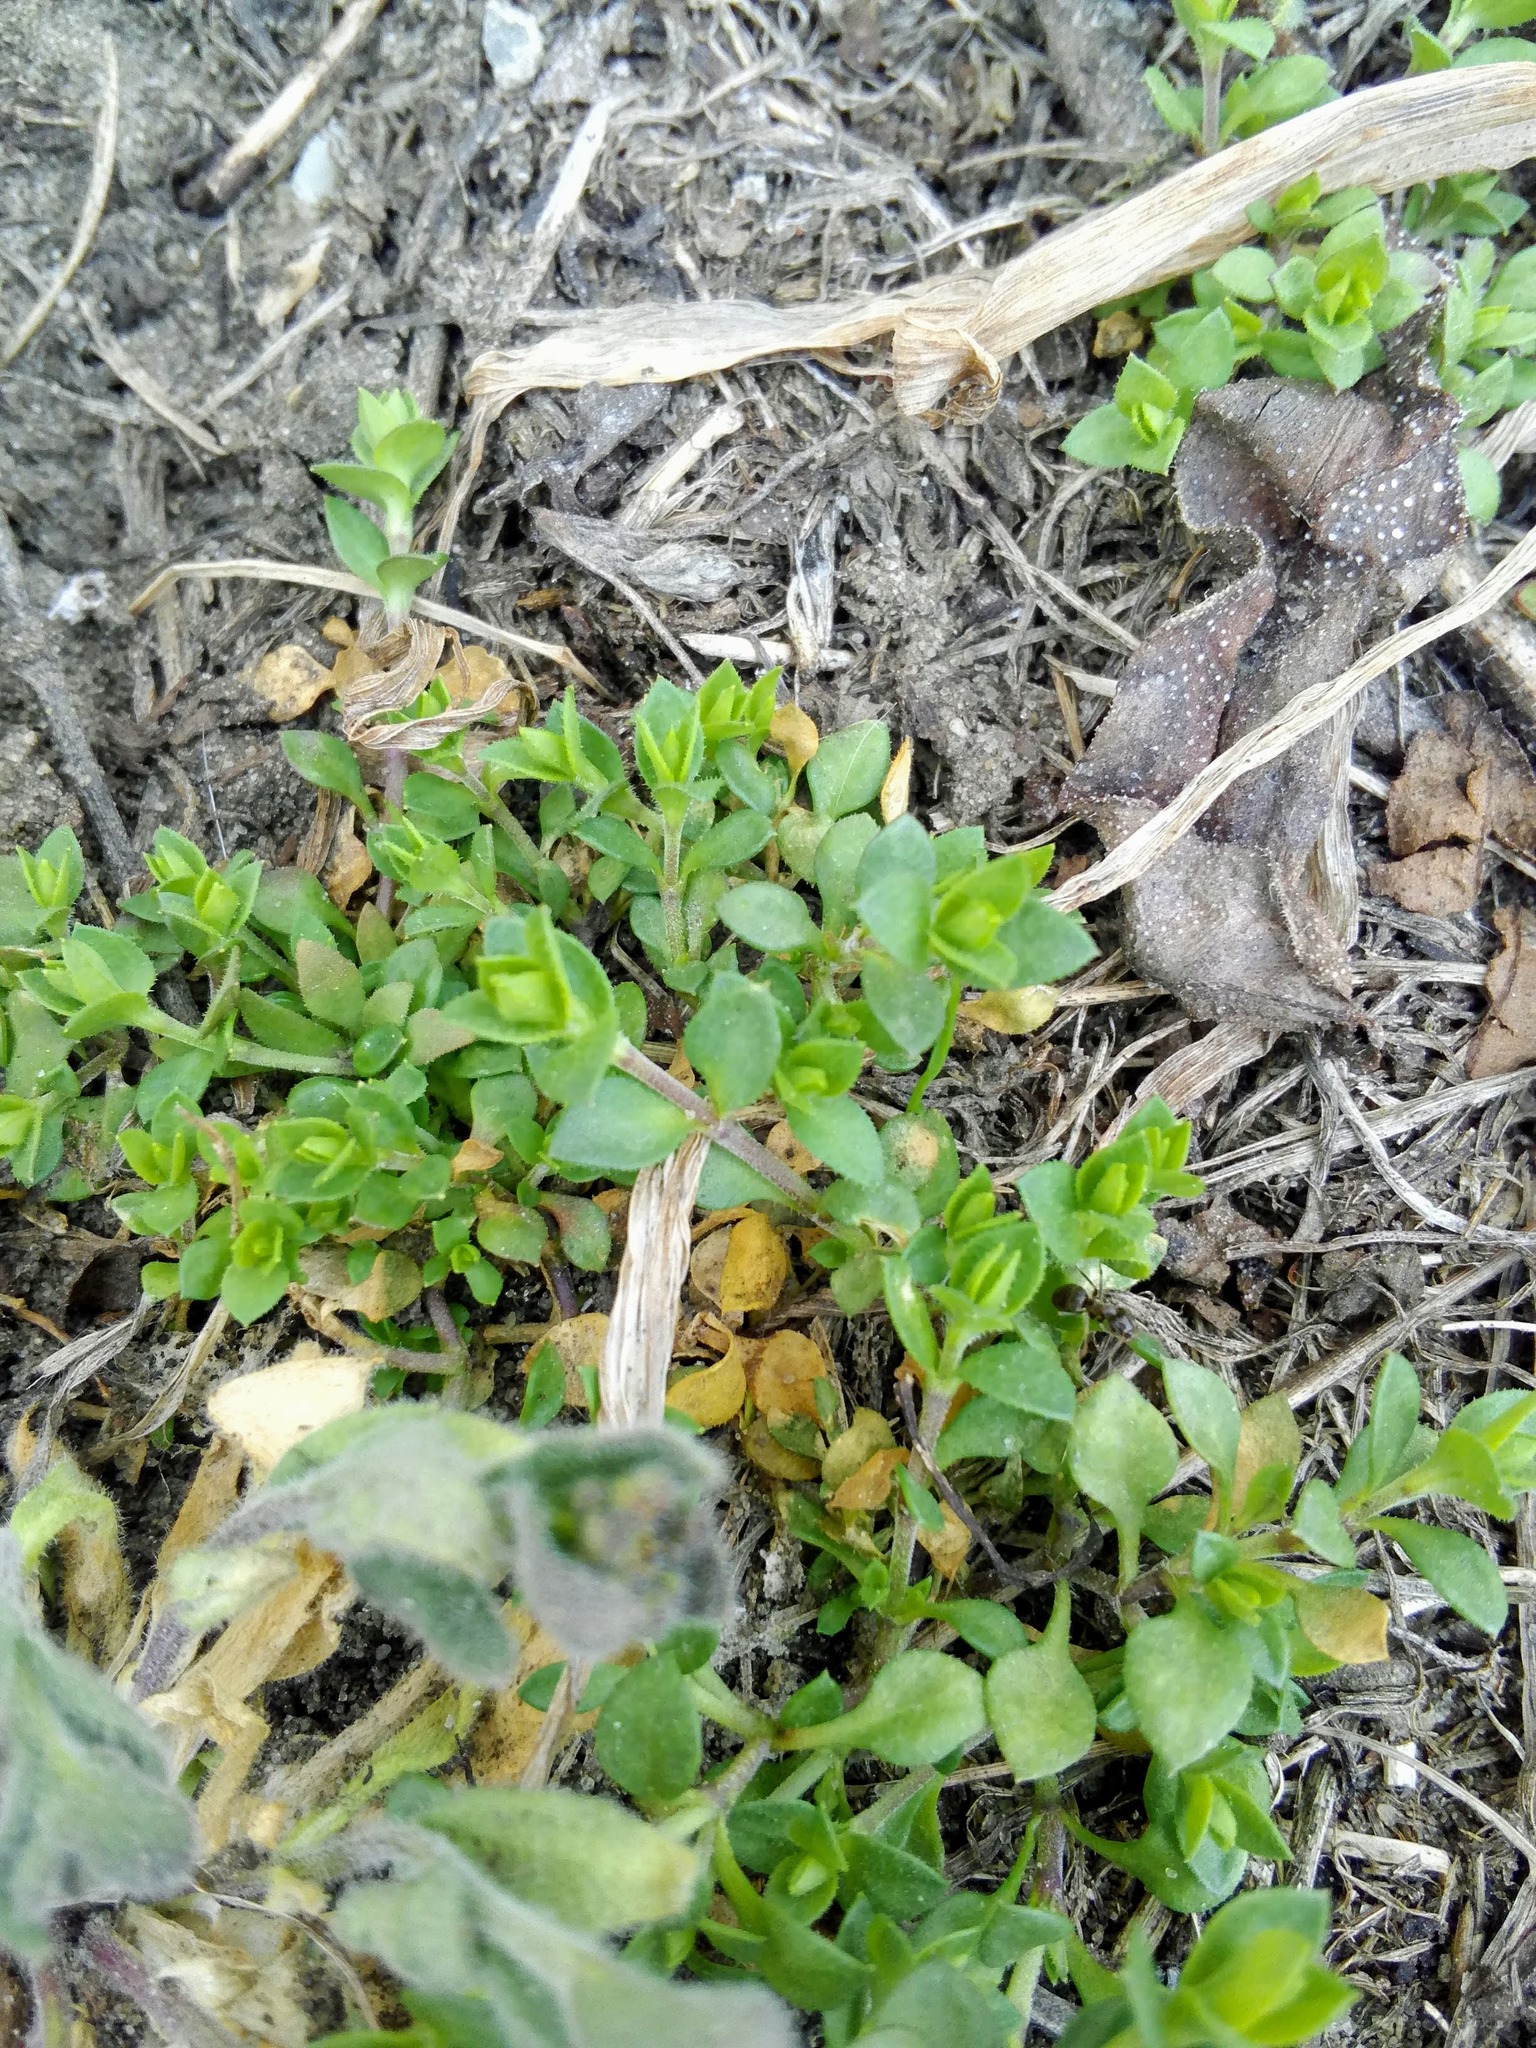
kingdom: Plantae
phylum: Tracheophyta
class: Magnoliopsida
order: Caryophyllales
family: Caryophyllaceae
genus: Arenaria
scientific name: Arenaria serpyllifolia
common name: Thyme-leaved sandwort
